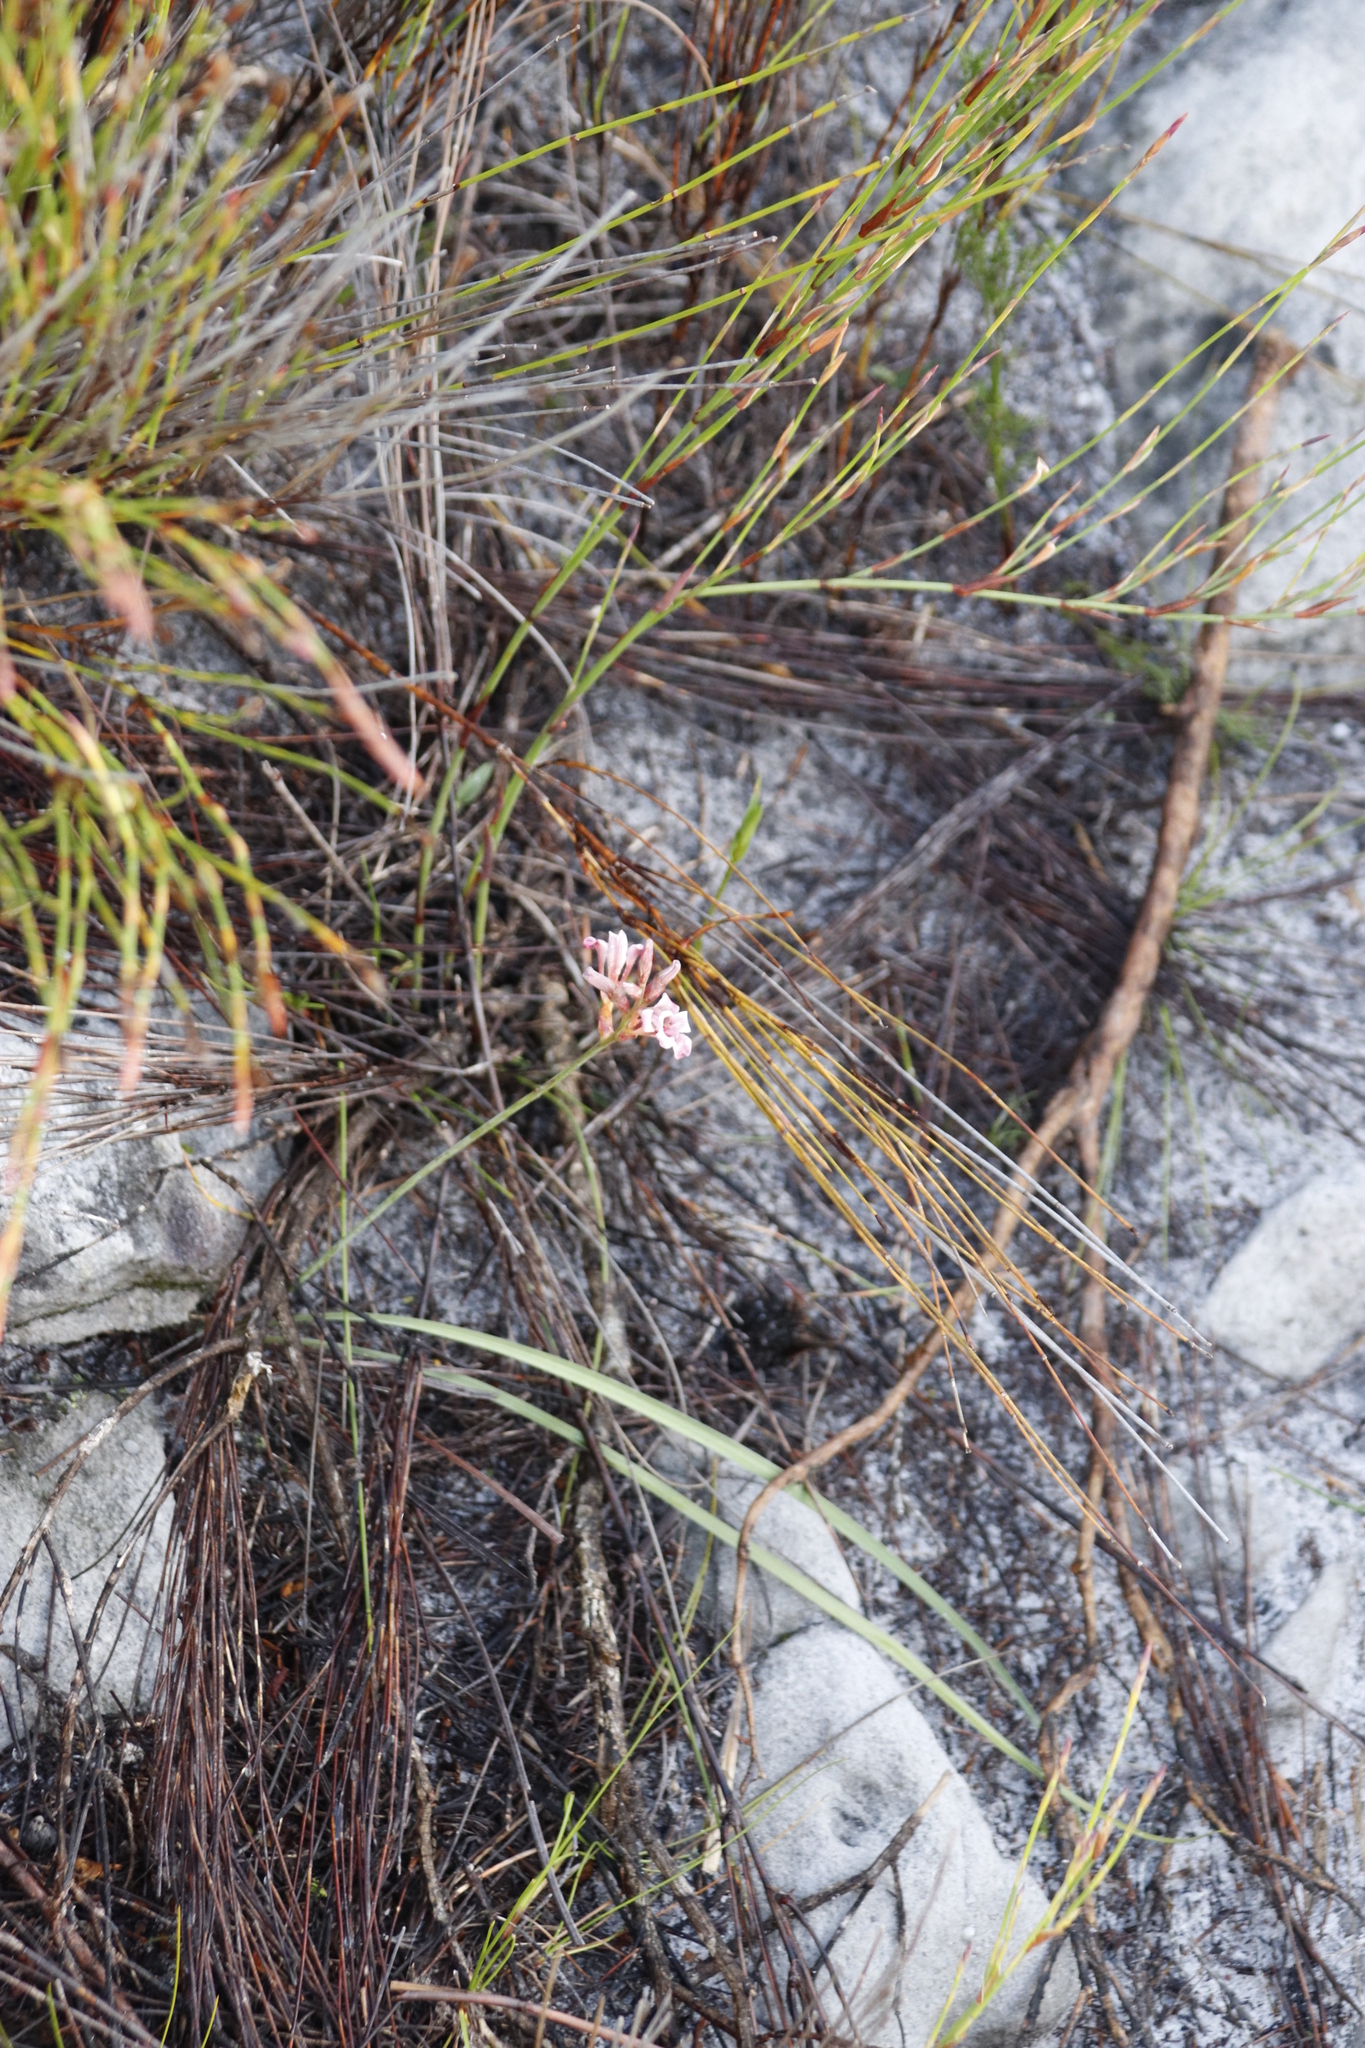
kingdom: Plantae
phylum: Tracheophyta
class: Liliopsida
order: Asparagales
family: Iridaceae
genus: Tritoniopsis
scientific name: Tritoniopsis dodii
